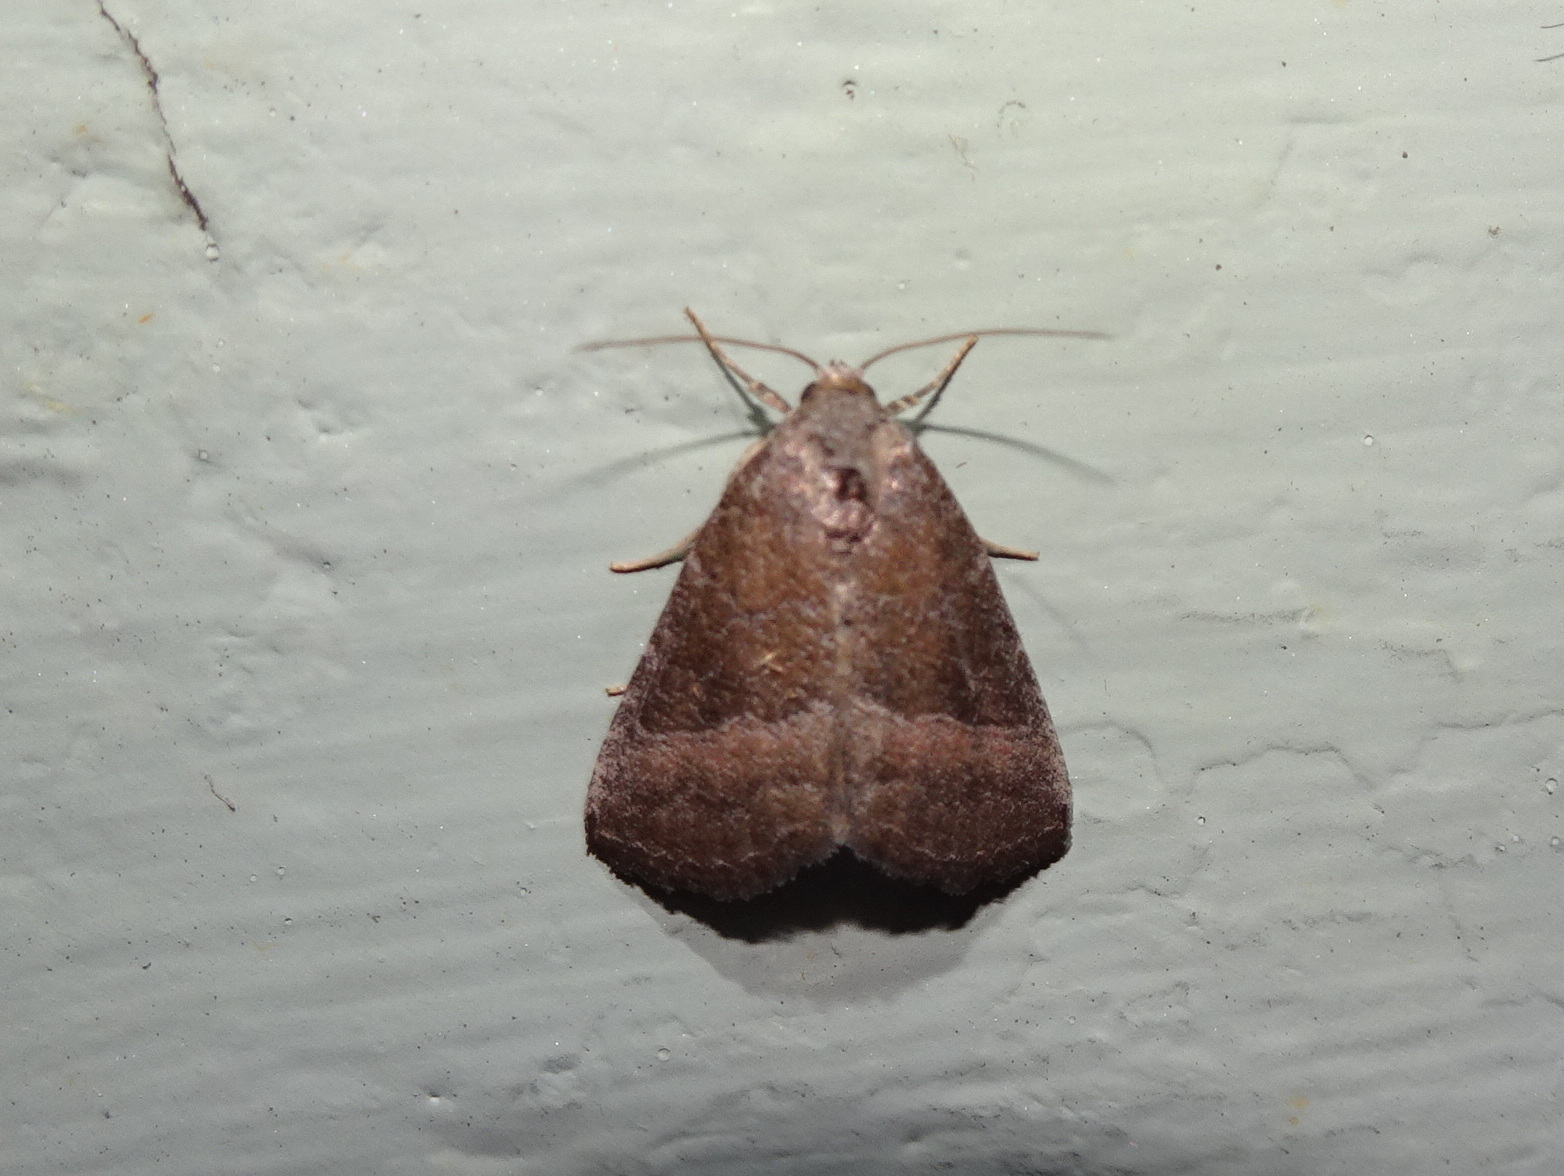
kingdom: Animalia
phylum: Arthropoda
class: Insecta
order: Lepidoptera
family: Noctuidae
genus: Ogdoconta
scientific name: Ogdoconta cinereola
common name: Common pinkband
